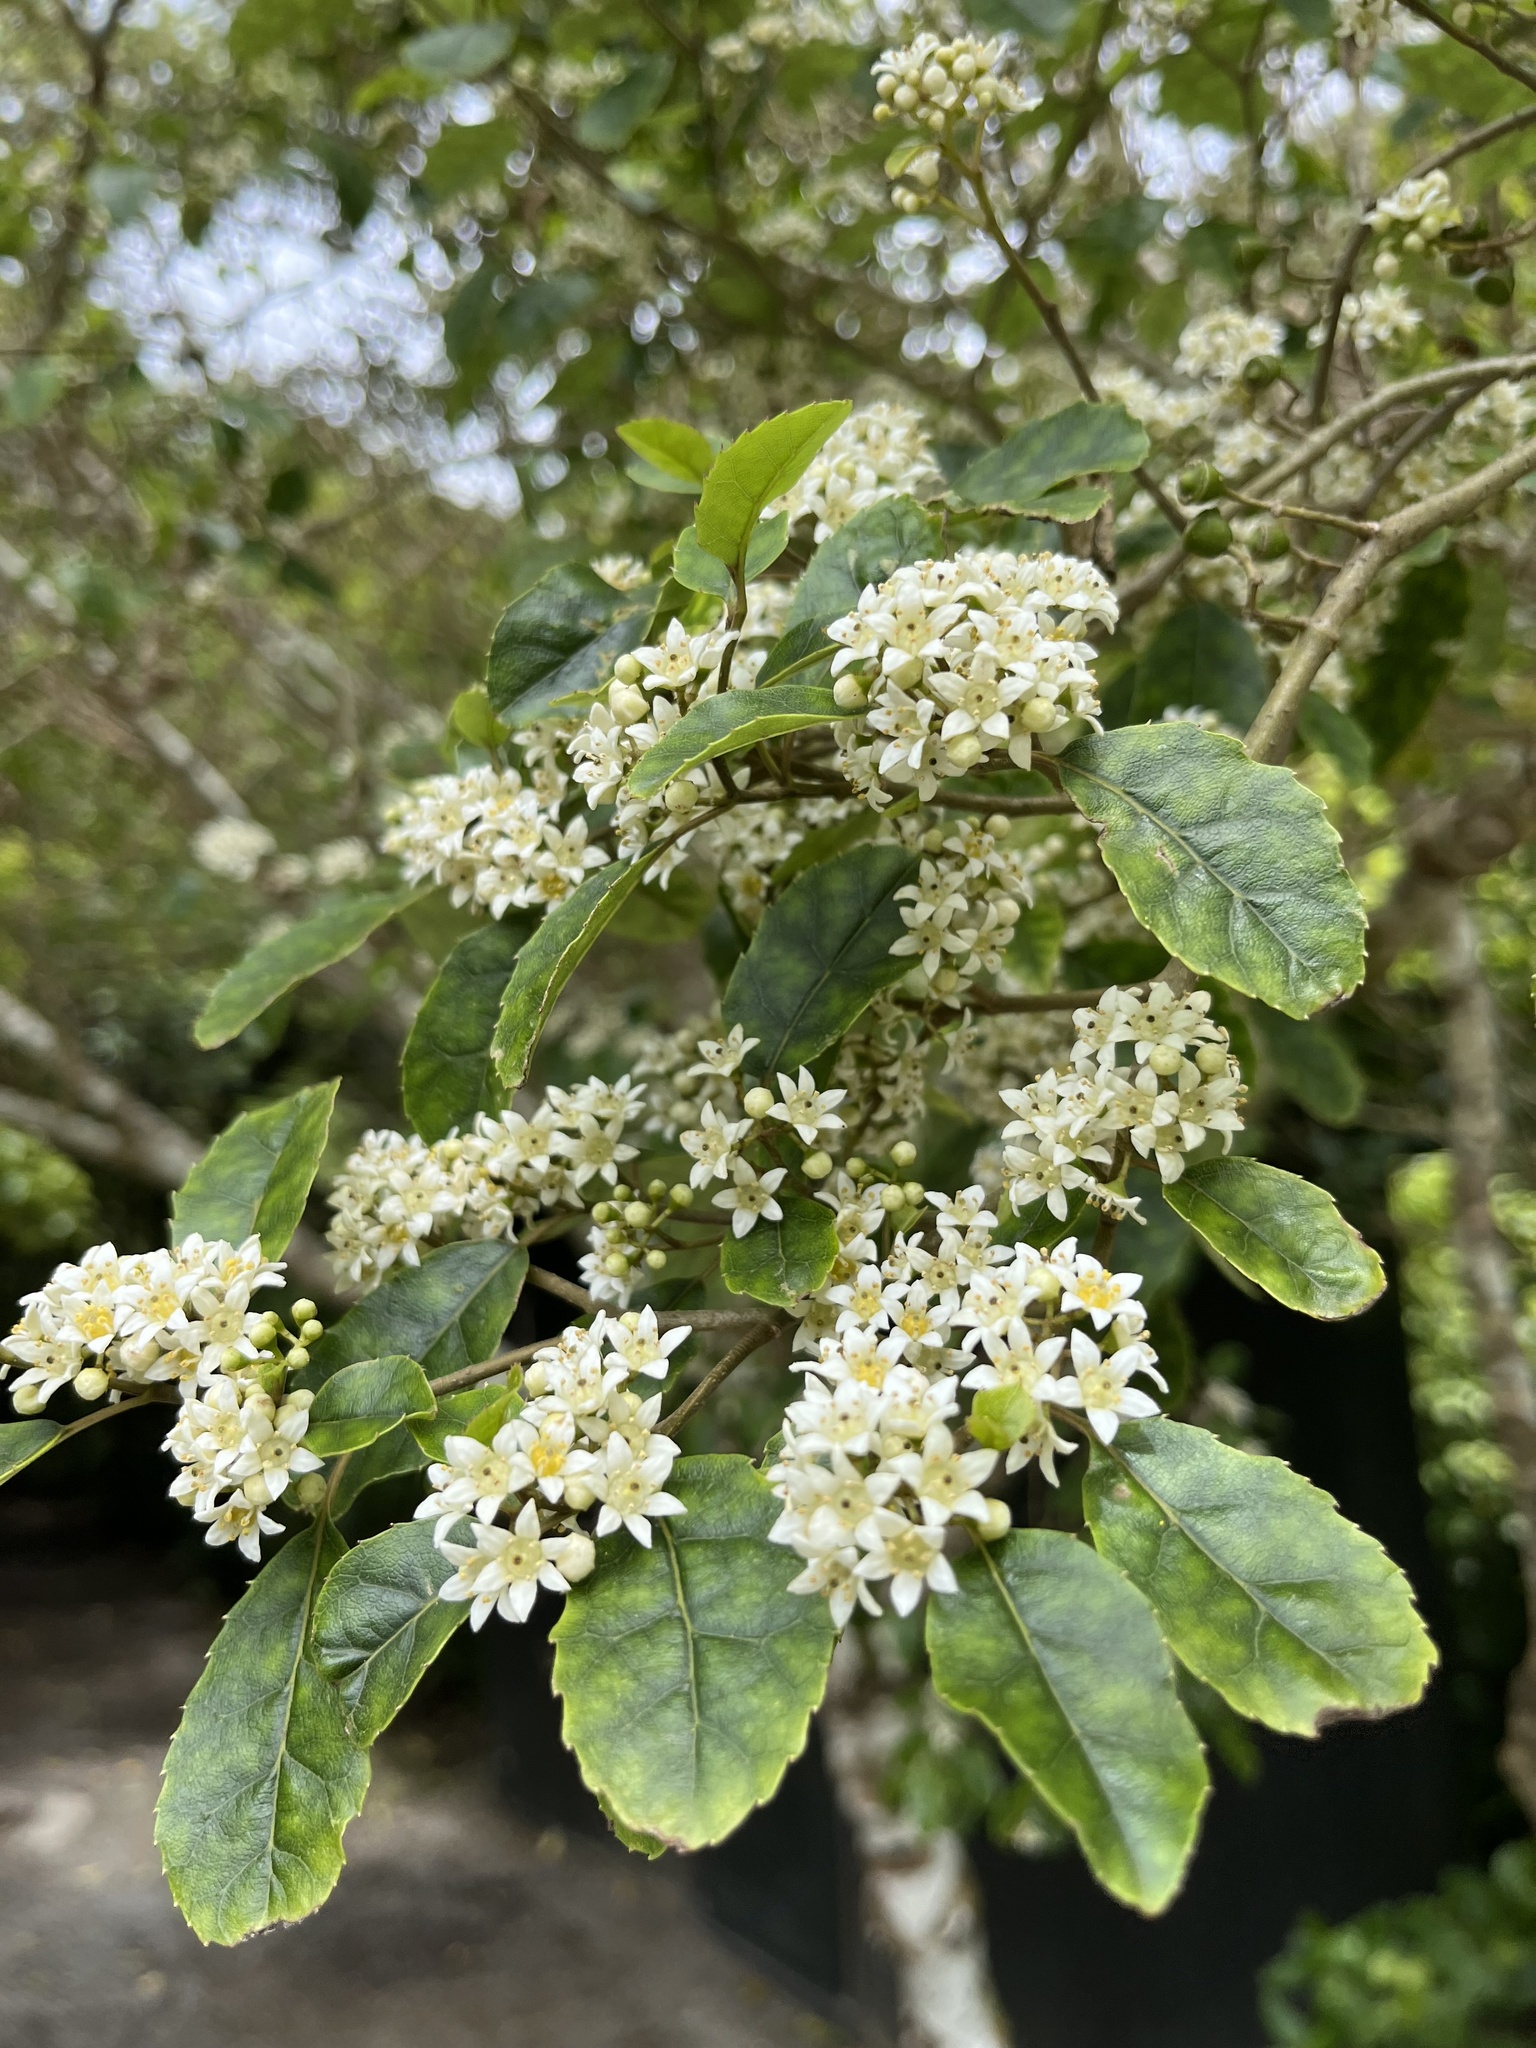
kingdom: Plantae
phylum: Tracheophyta
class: Magnoliopsida
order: Asterales
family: Rousseaceae
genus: Carpodetus
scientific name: Carpodetus serratus
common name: White mapau
